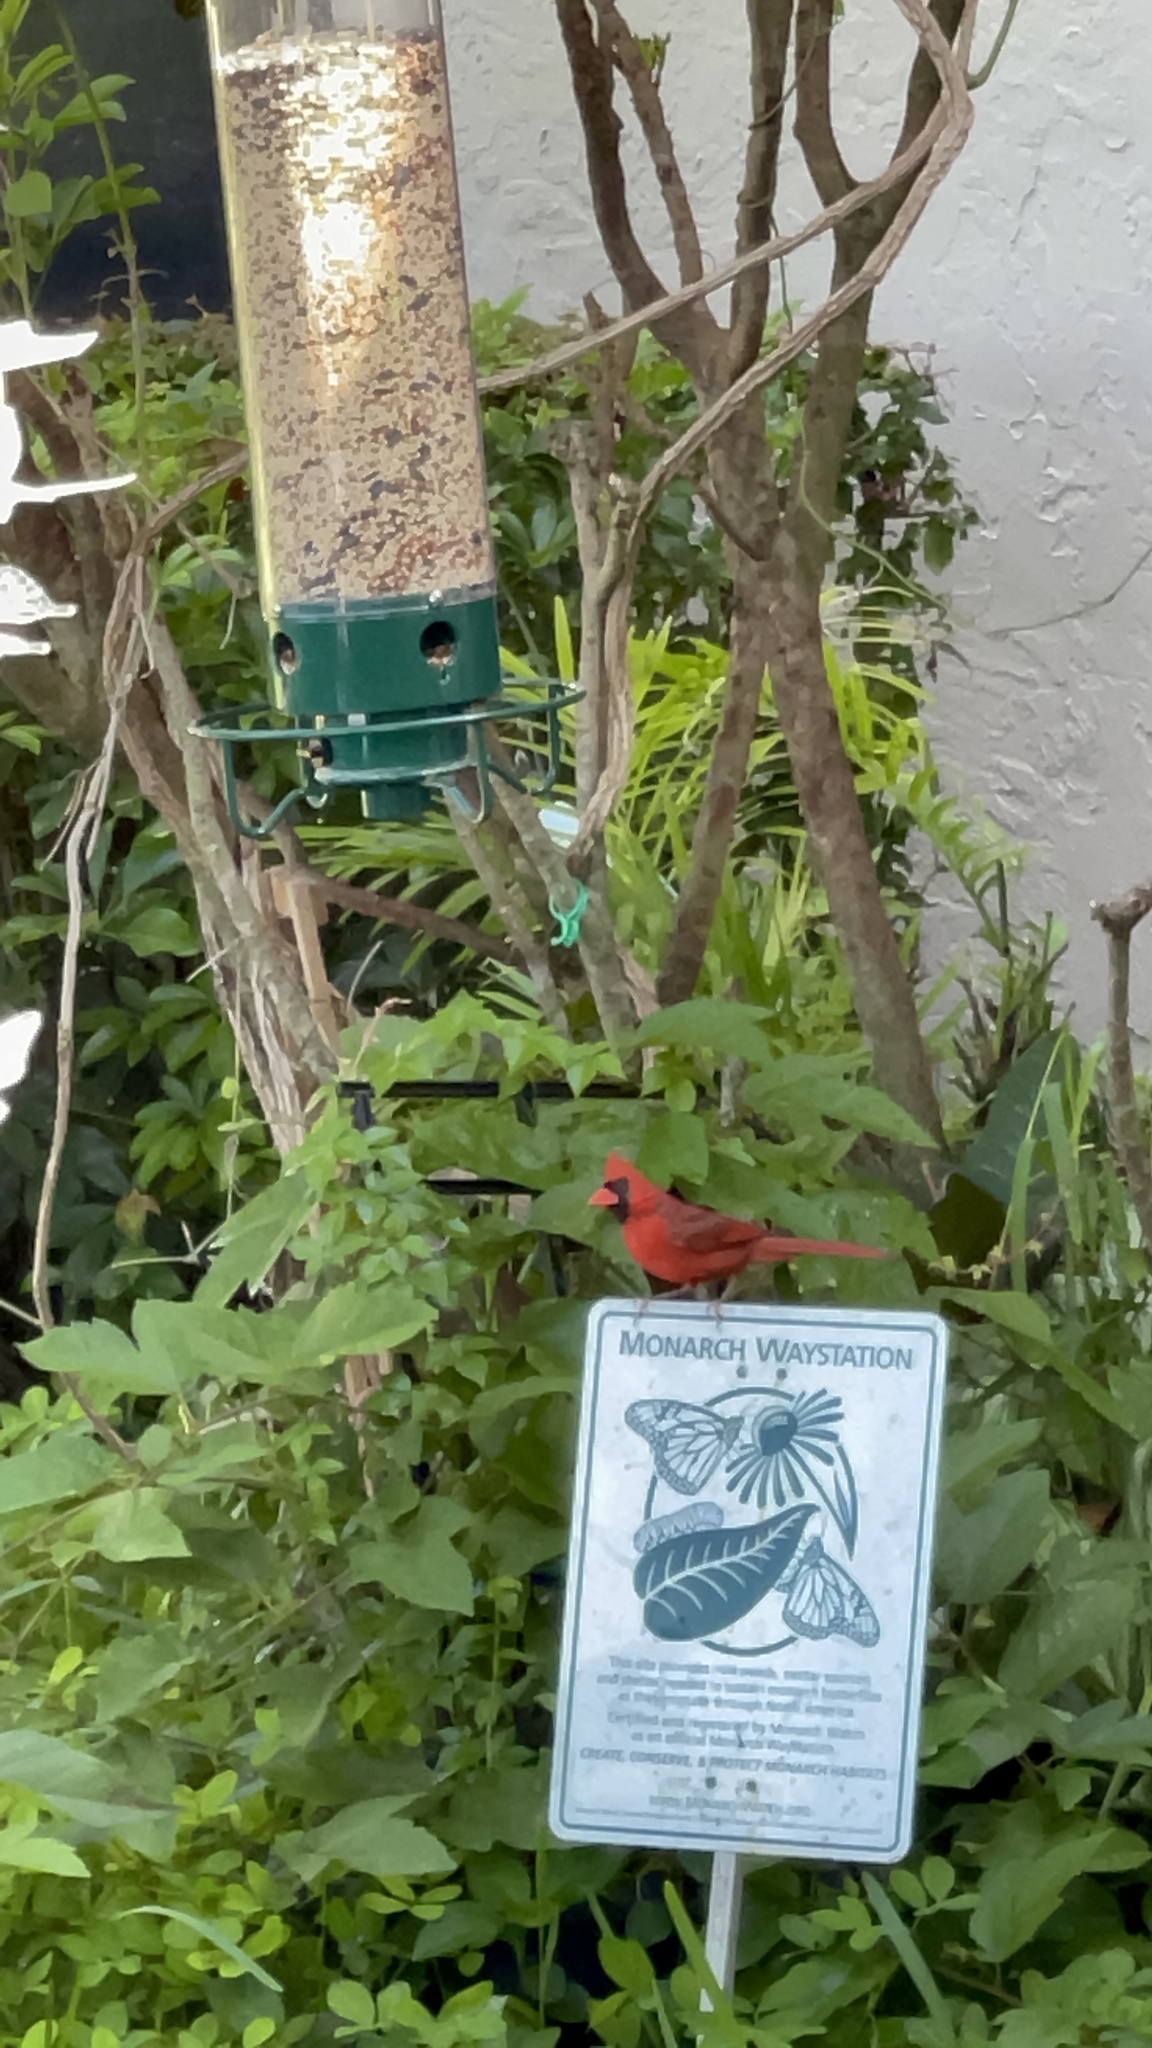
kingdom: Animalia
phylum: Chordata
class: Aves
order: Passeriformes
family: Cardinalidae
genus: Cardinalis
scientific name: Cardinalis cardinalis
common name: Northern cardinal
